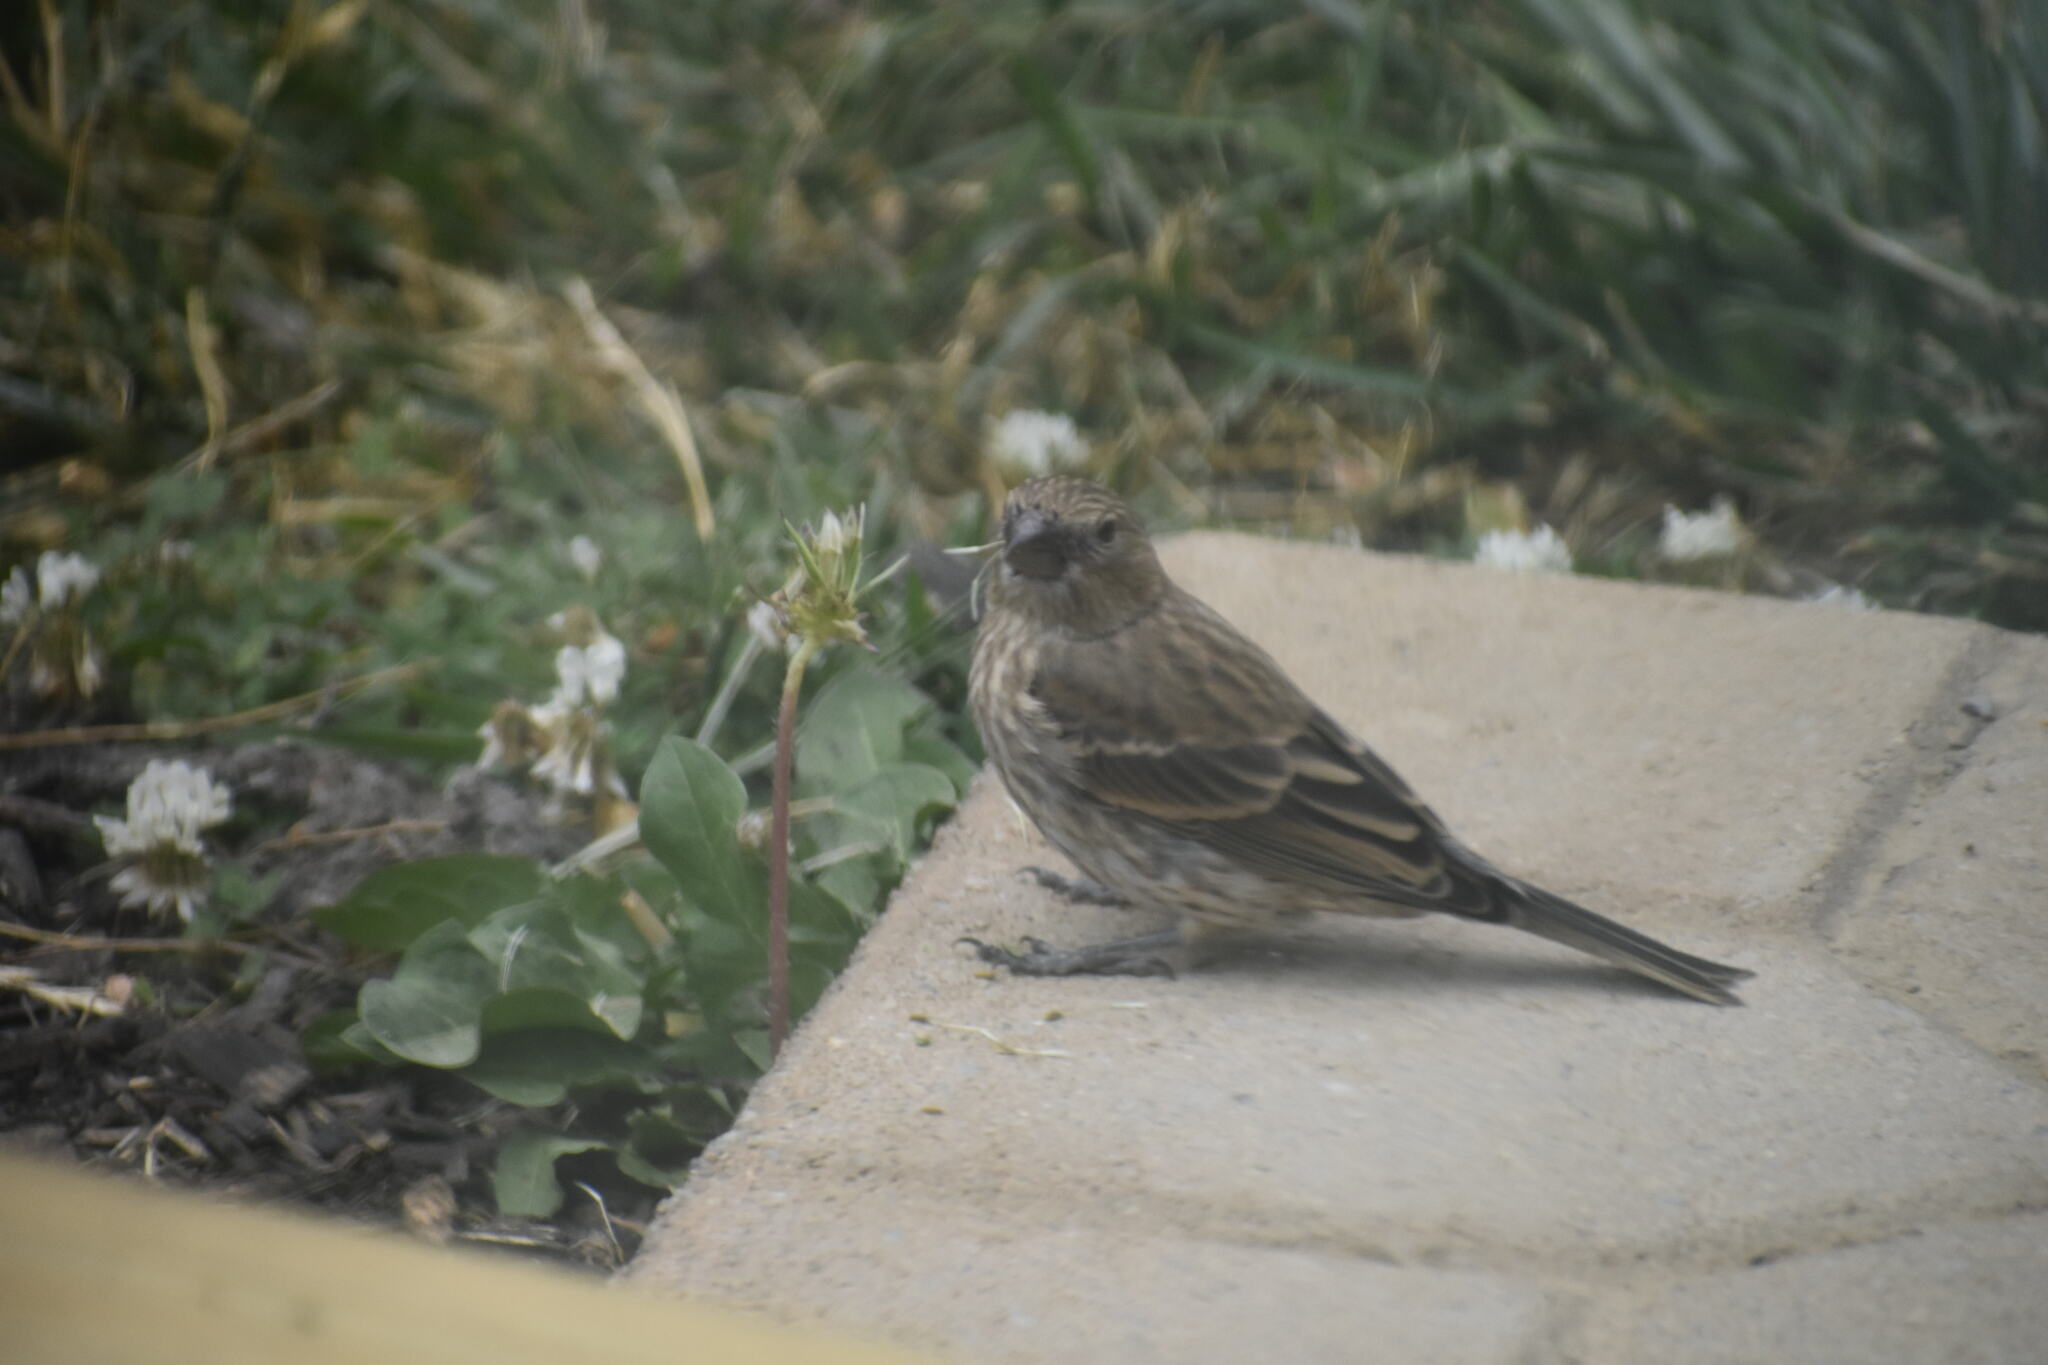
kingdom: Animalia
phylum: Chordata
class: Aves
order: Passeriformes
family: Fringillidae
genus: Haemorhous
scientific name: Haemorhous mexicanus
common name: House finch
